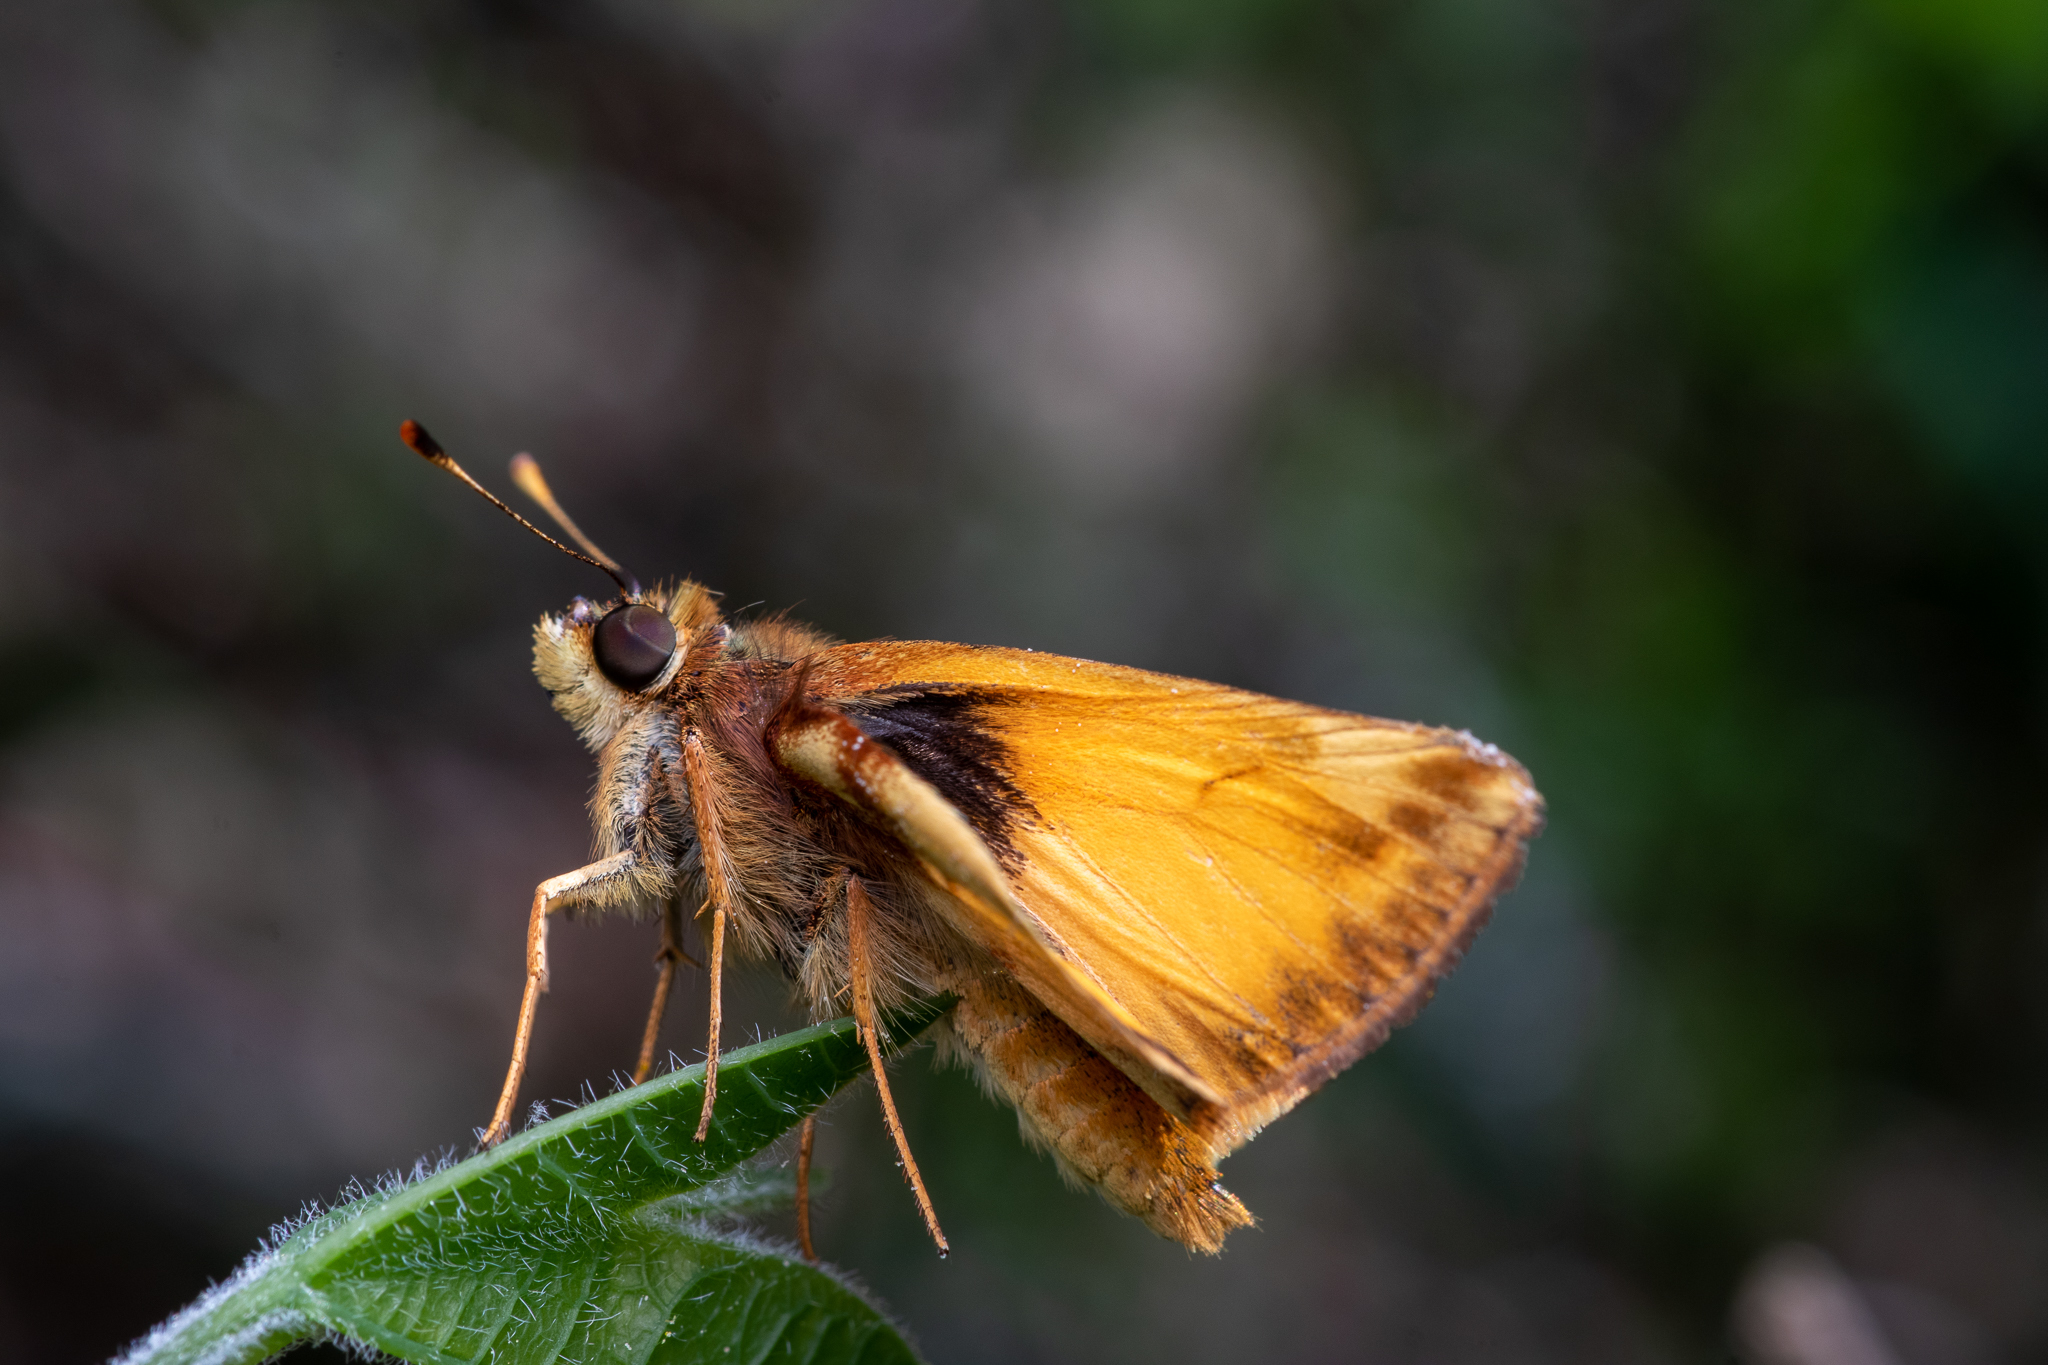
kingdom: Animalia
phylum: Arthropoda
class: Insecta
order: Lepidoptera
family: Hesperiidae
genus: Lon
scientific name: Lon zabulon
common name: Zabulon skipper
